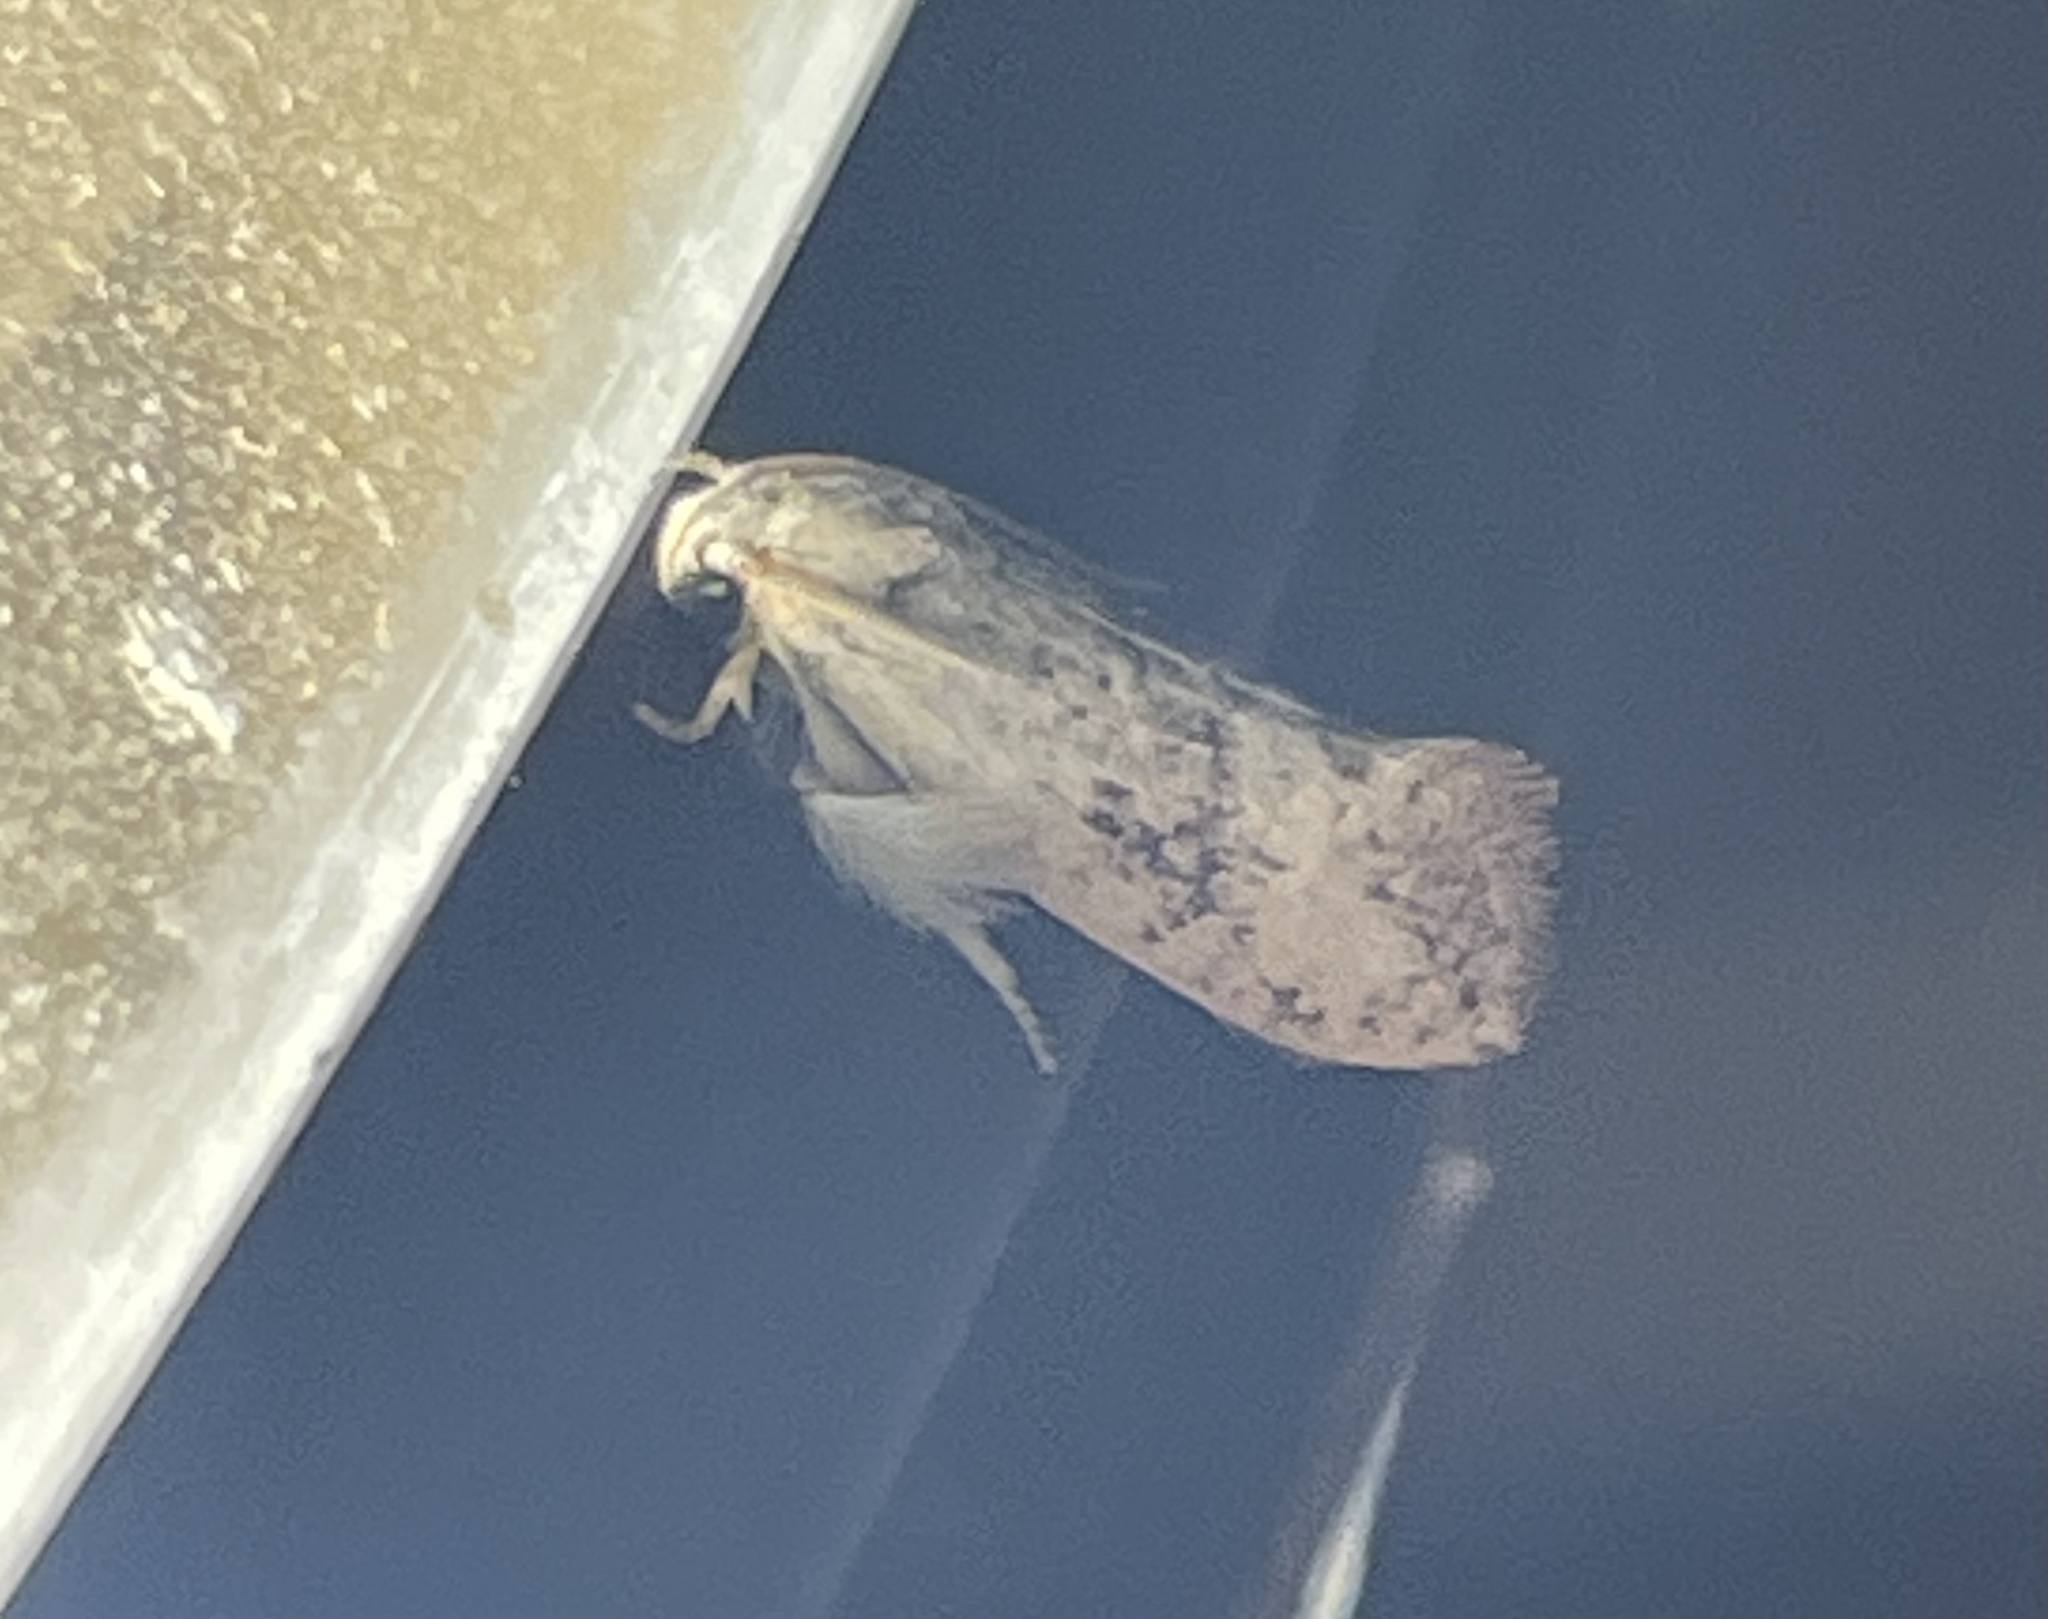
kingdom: Animalia
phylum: Arthropoda
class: Insecta
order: Lepidoptera
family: Tineidae
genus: Acrolophus
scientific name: Acrolophus mycetophagus
